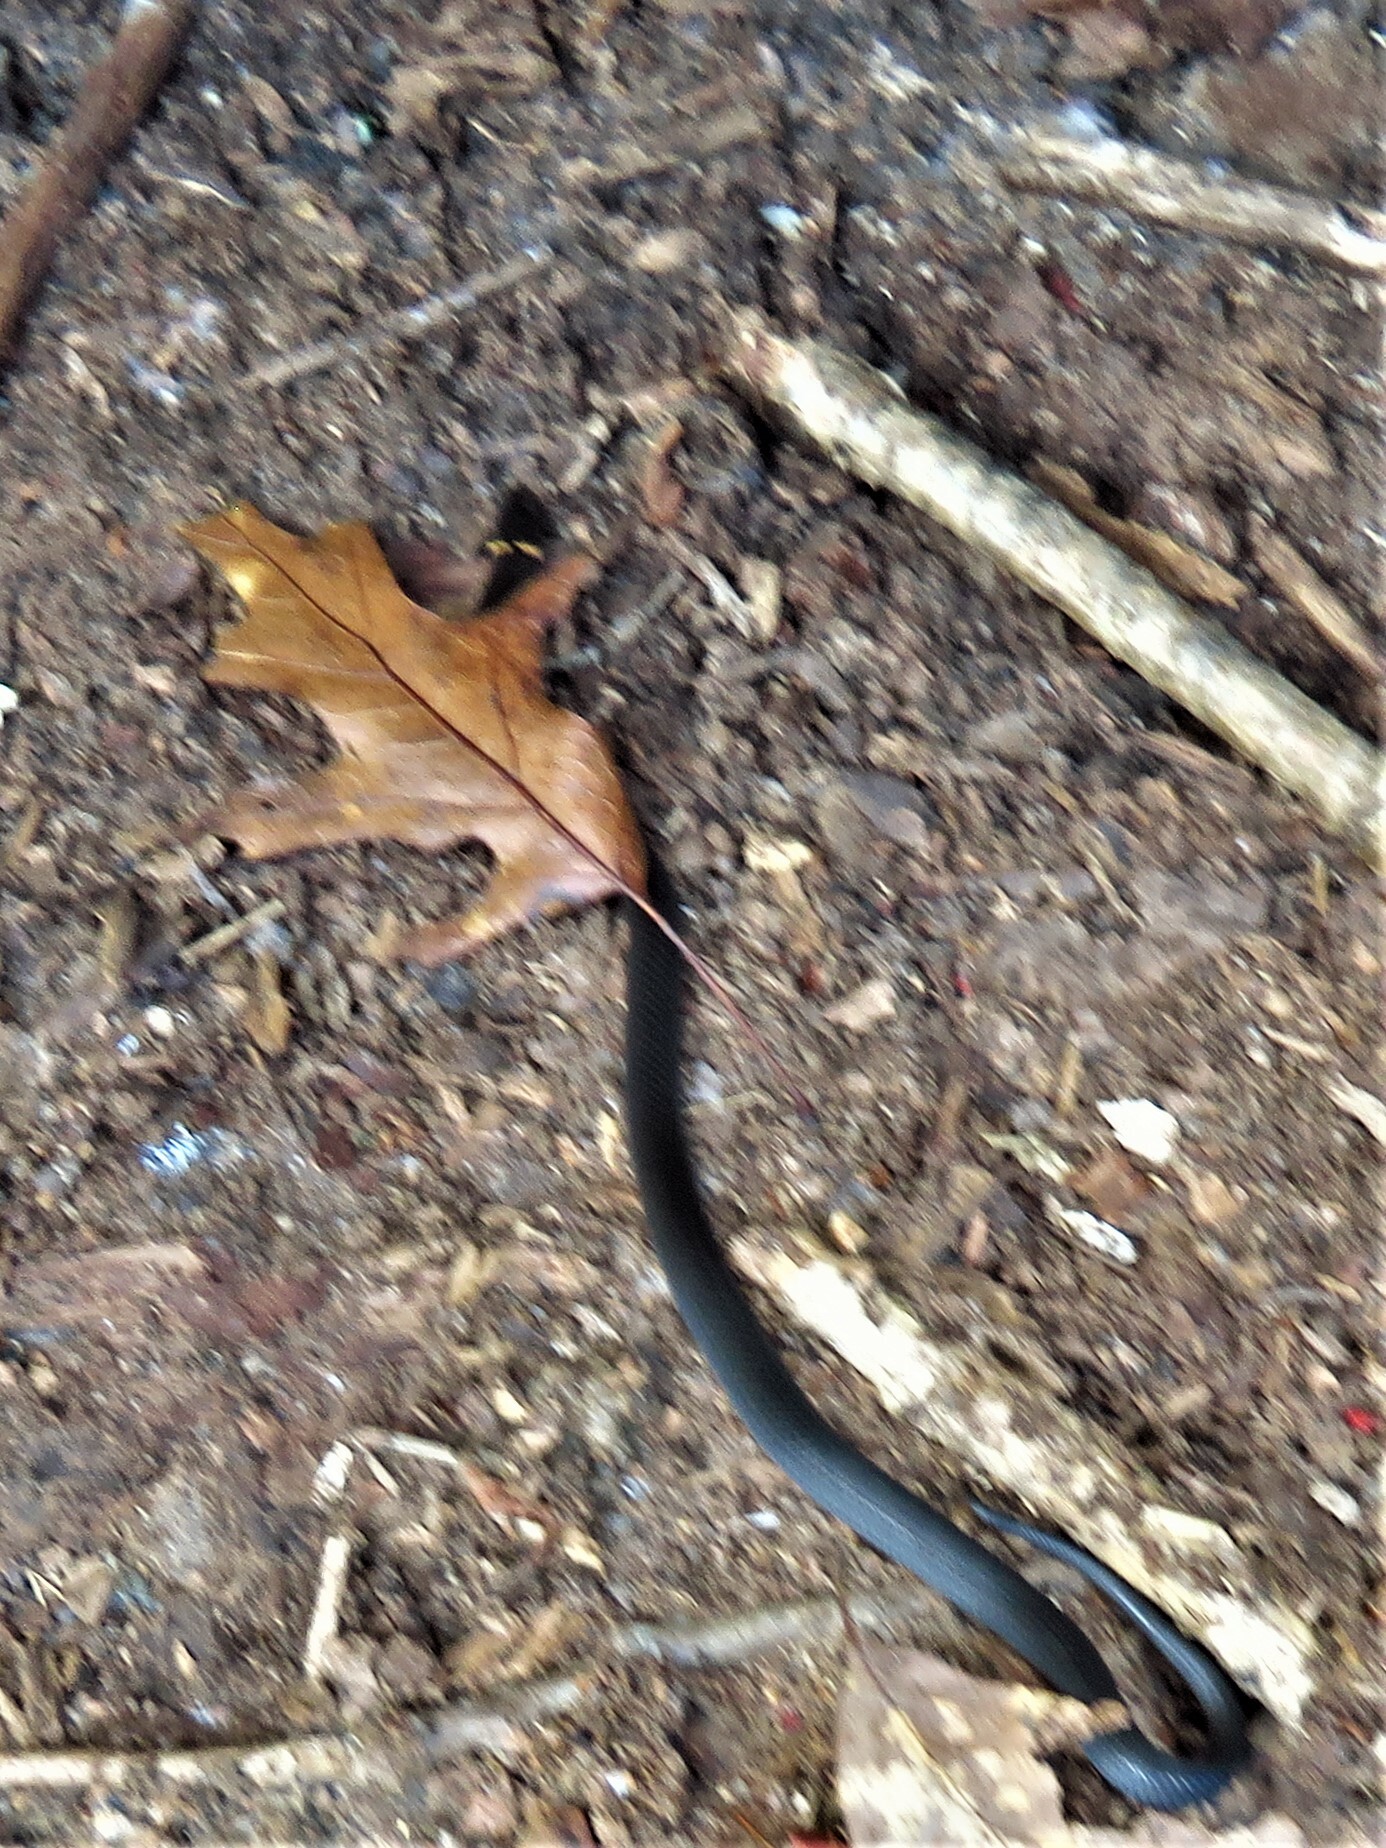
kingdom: Animalia
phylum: Chordata
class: Squamata
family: Colubridae
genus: Diadophis
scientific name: Diadophis punctatus
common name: Ringneck snake
